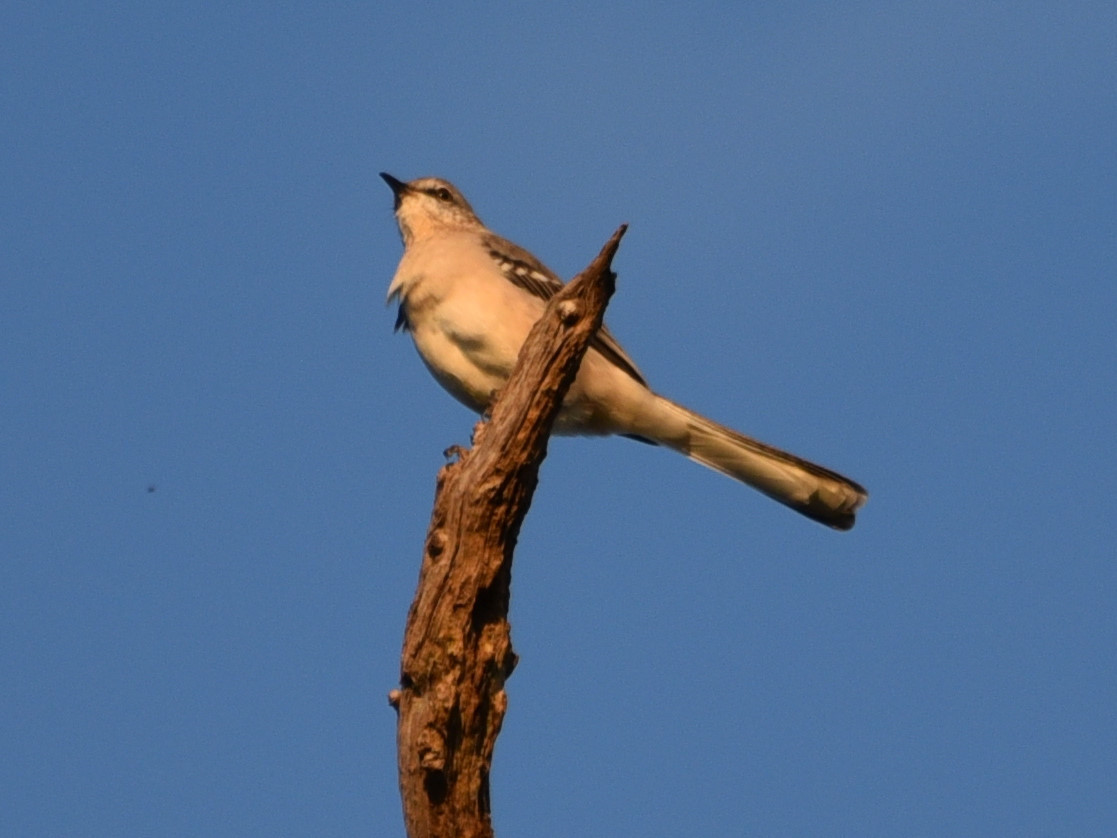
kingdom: Animalia
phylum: Chordata
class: Aves
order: Passeriformes
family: Mimidae
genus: Mimus
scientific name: Mimus polyglottos
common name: Northern mockingbird
